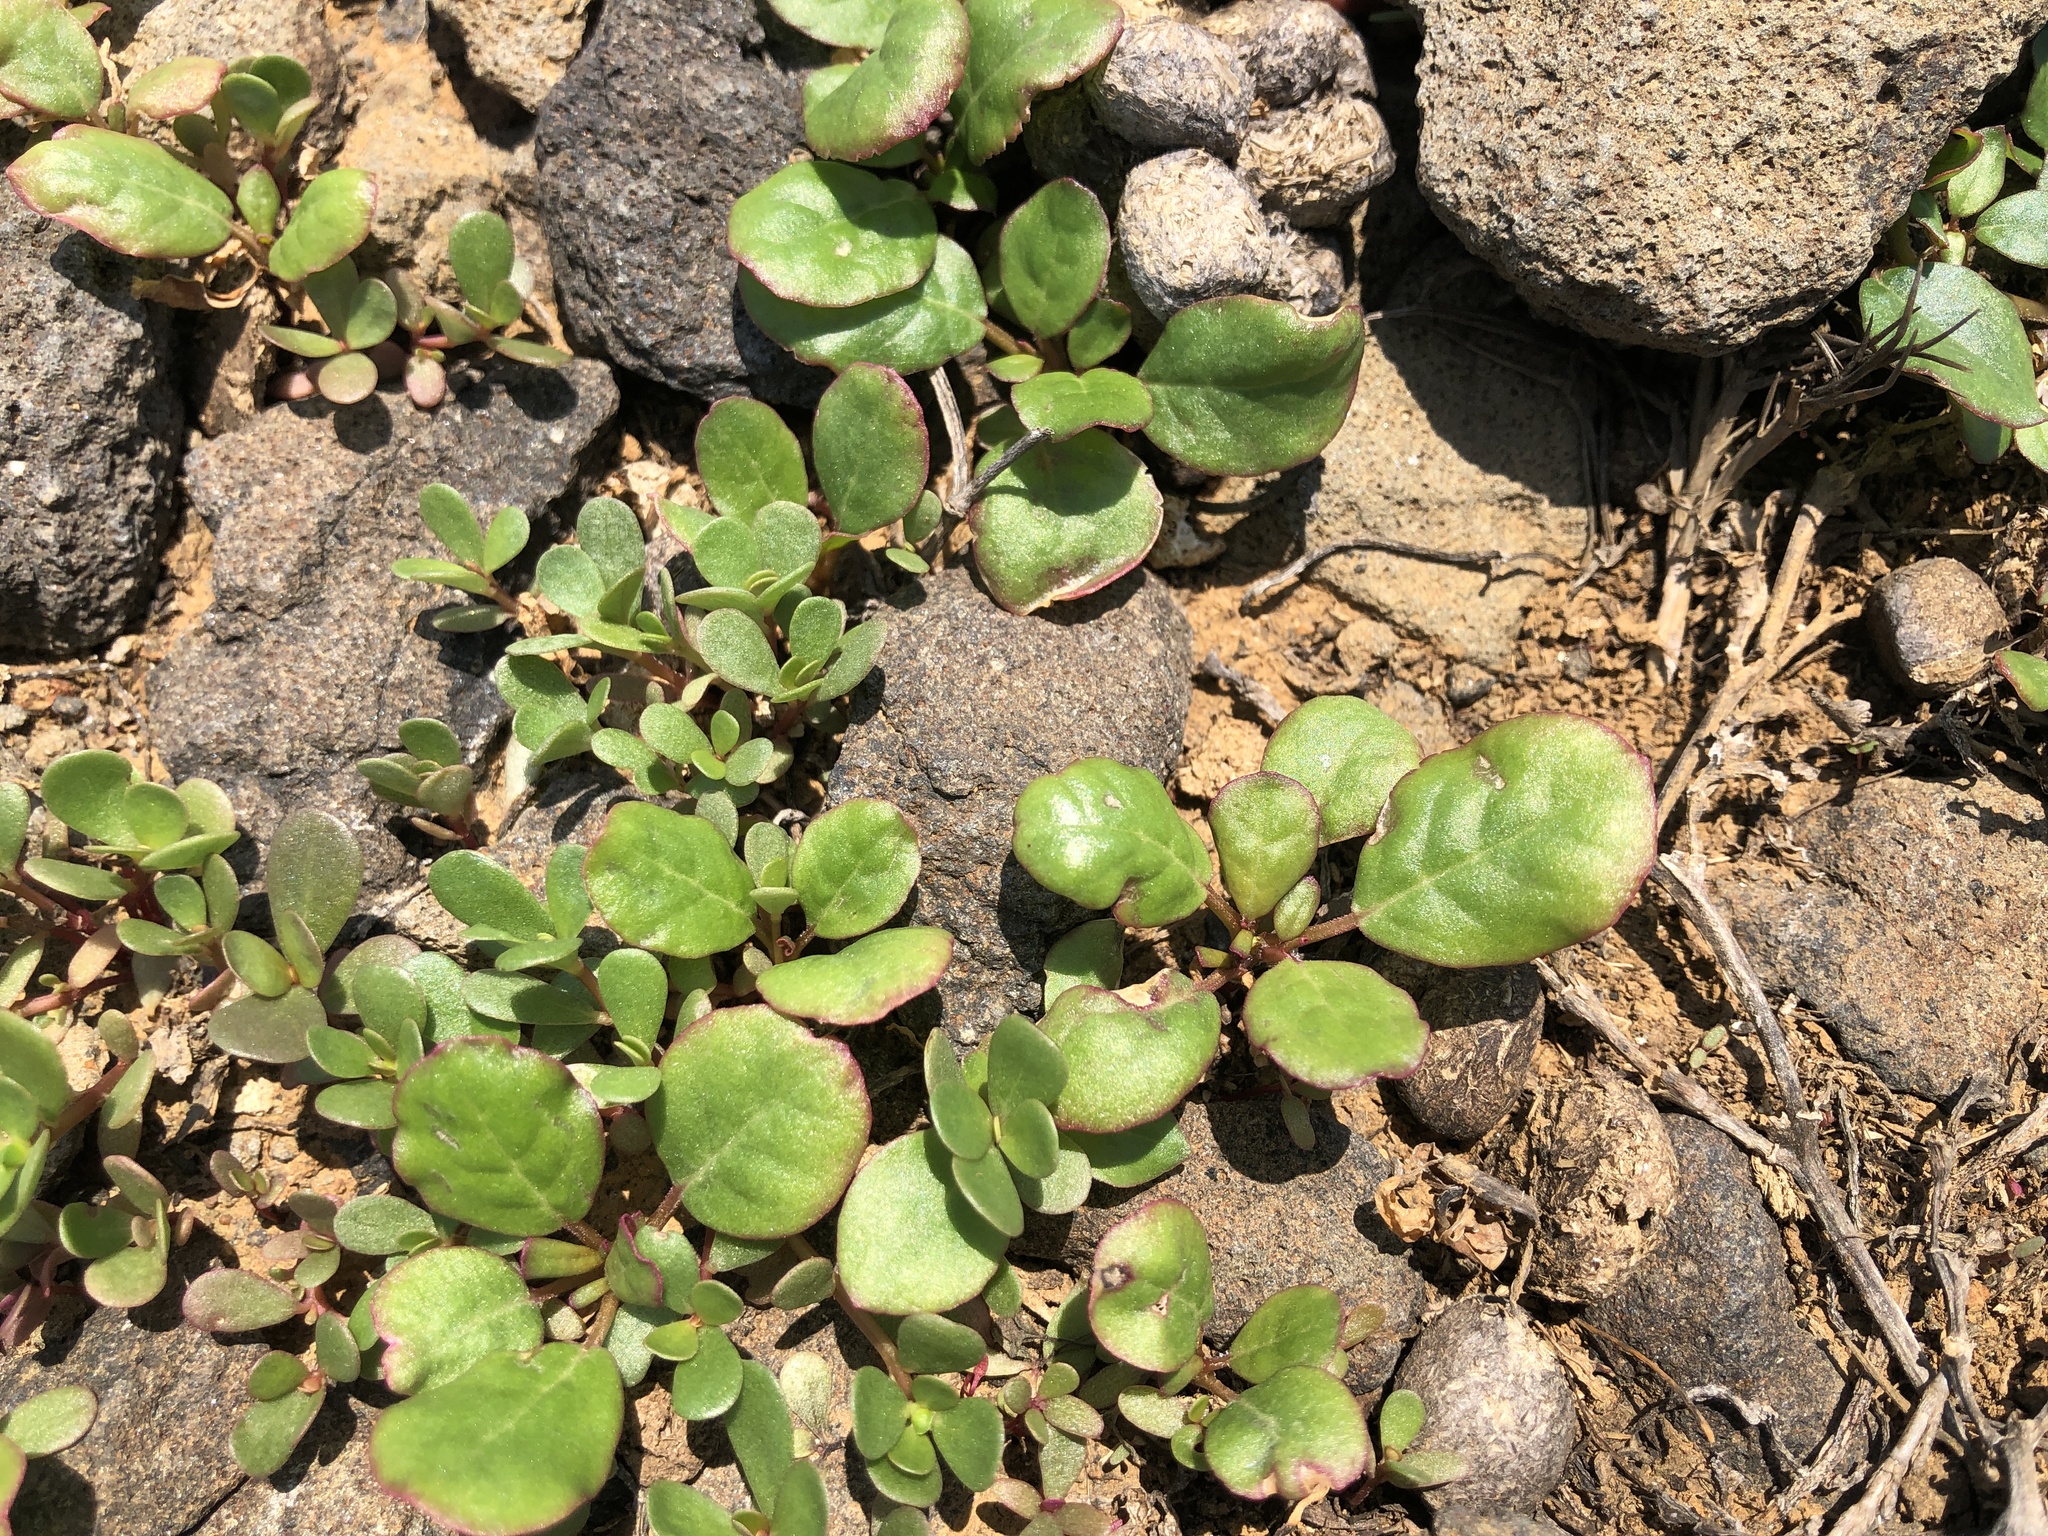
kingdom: Plantae
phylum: Tracheophyta
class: Magnoliopsida
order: Caryophyllales
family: Aizoaceae
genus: Trianthema
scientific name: Trianthema portulacastrum
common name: Desert horsepurslane
